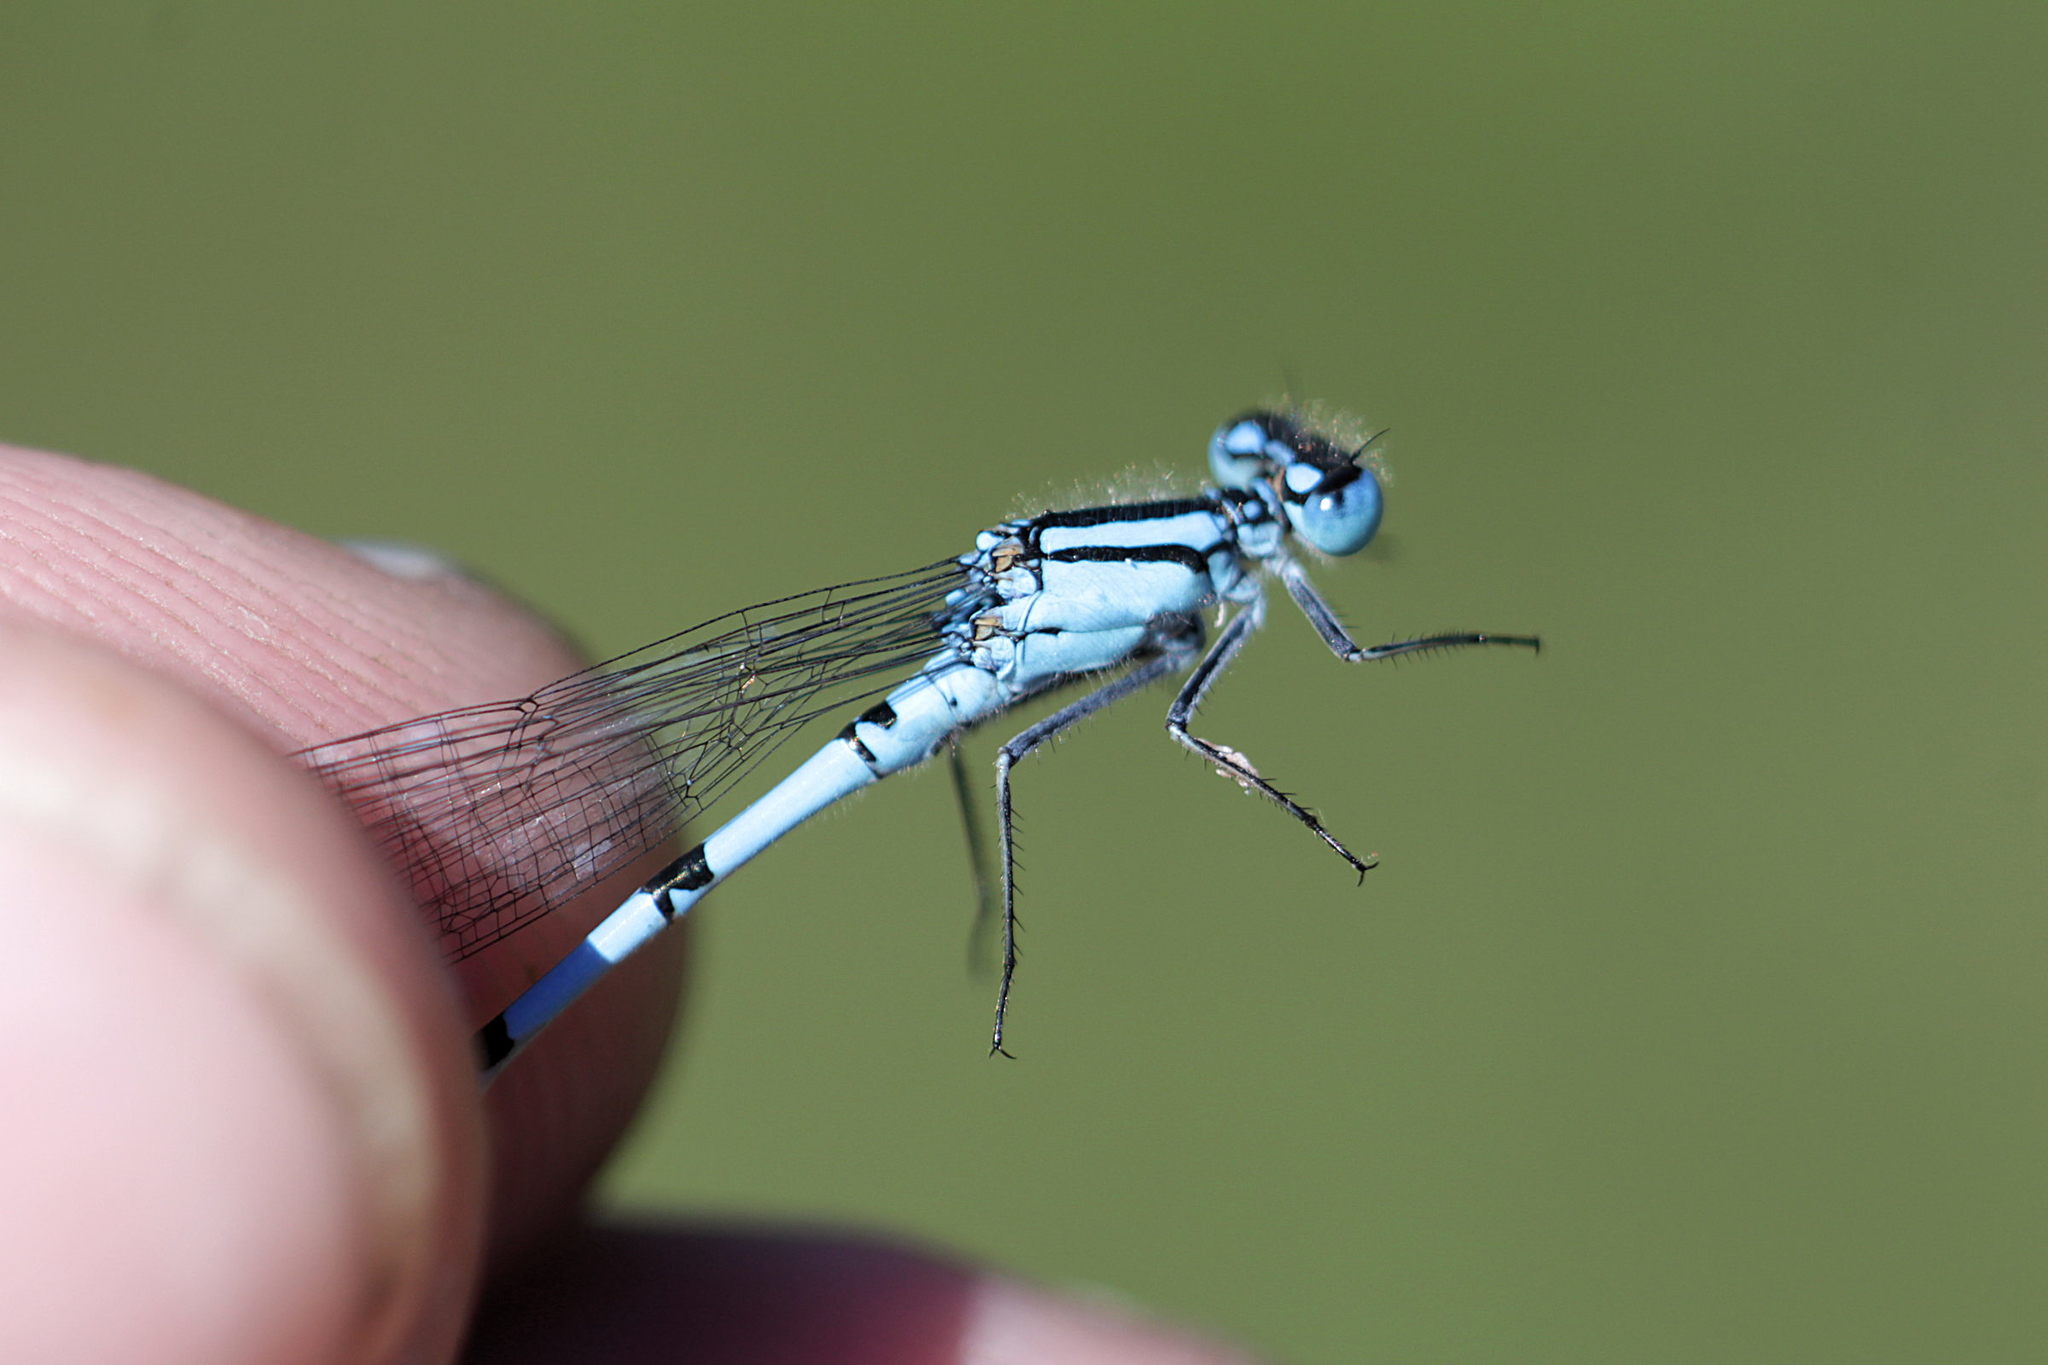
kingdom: Animalia
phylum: Arthropoda
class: Insecta
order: Odonata
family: Coenagrionidae
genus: Enallagma
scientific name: Enallagma cyathigerum
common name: Common blue damselfly
